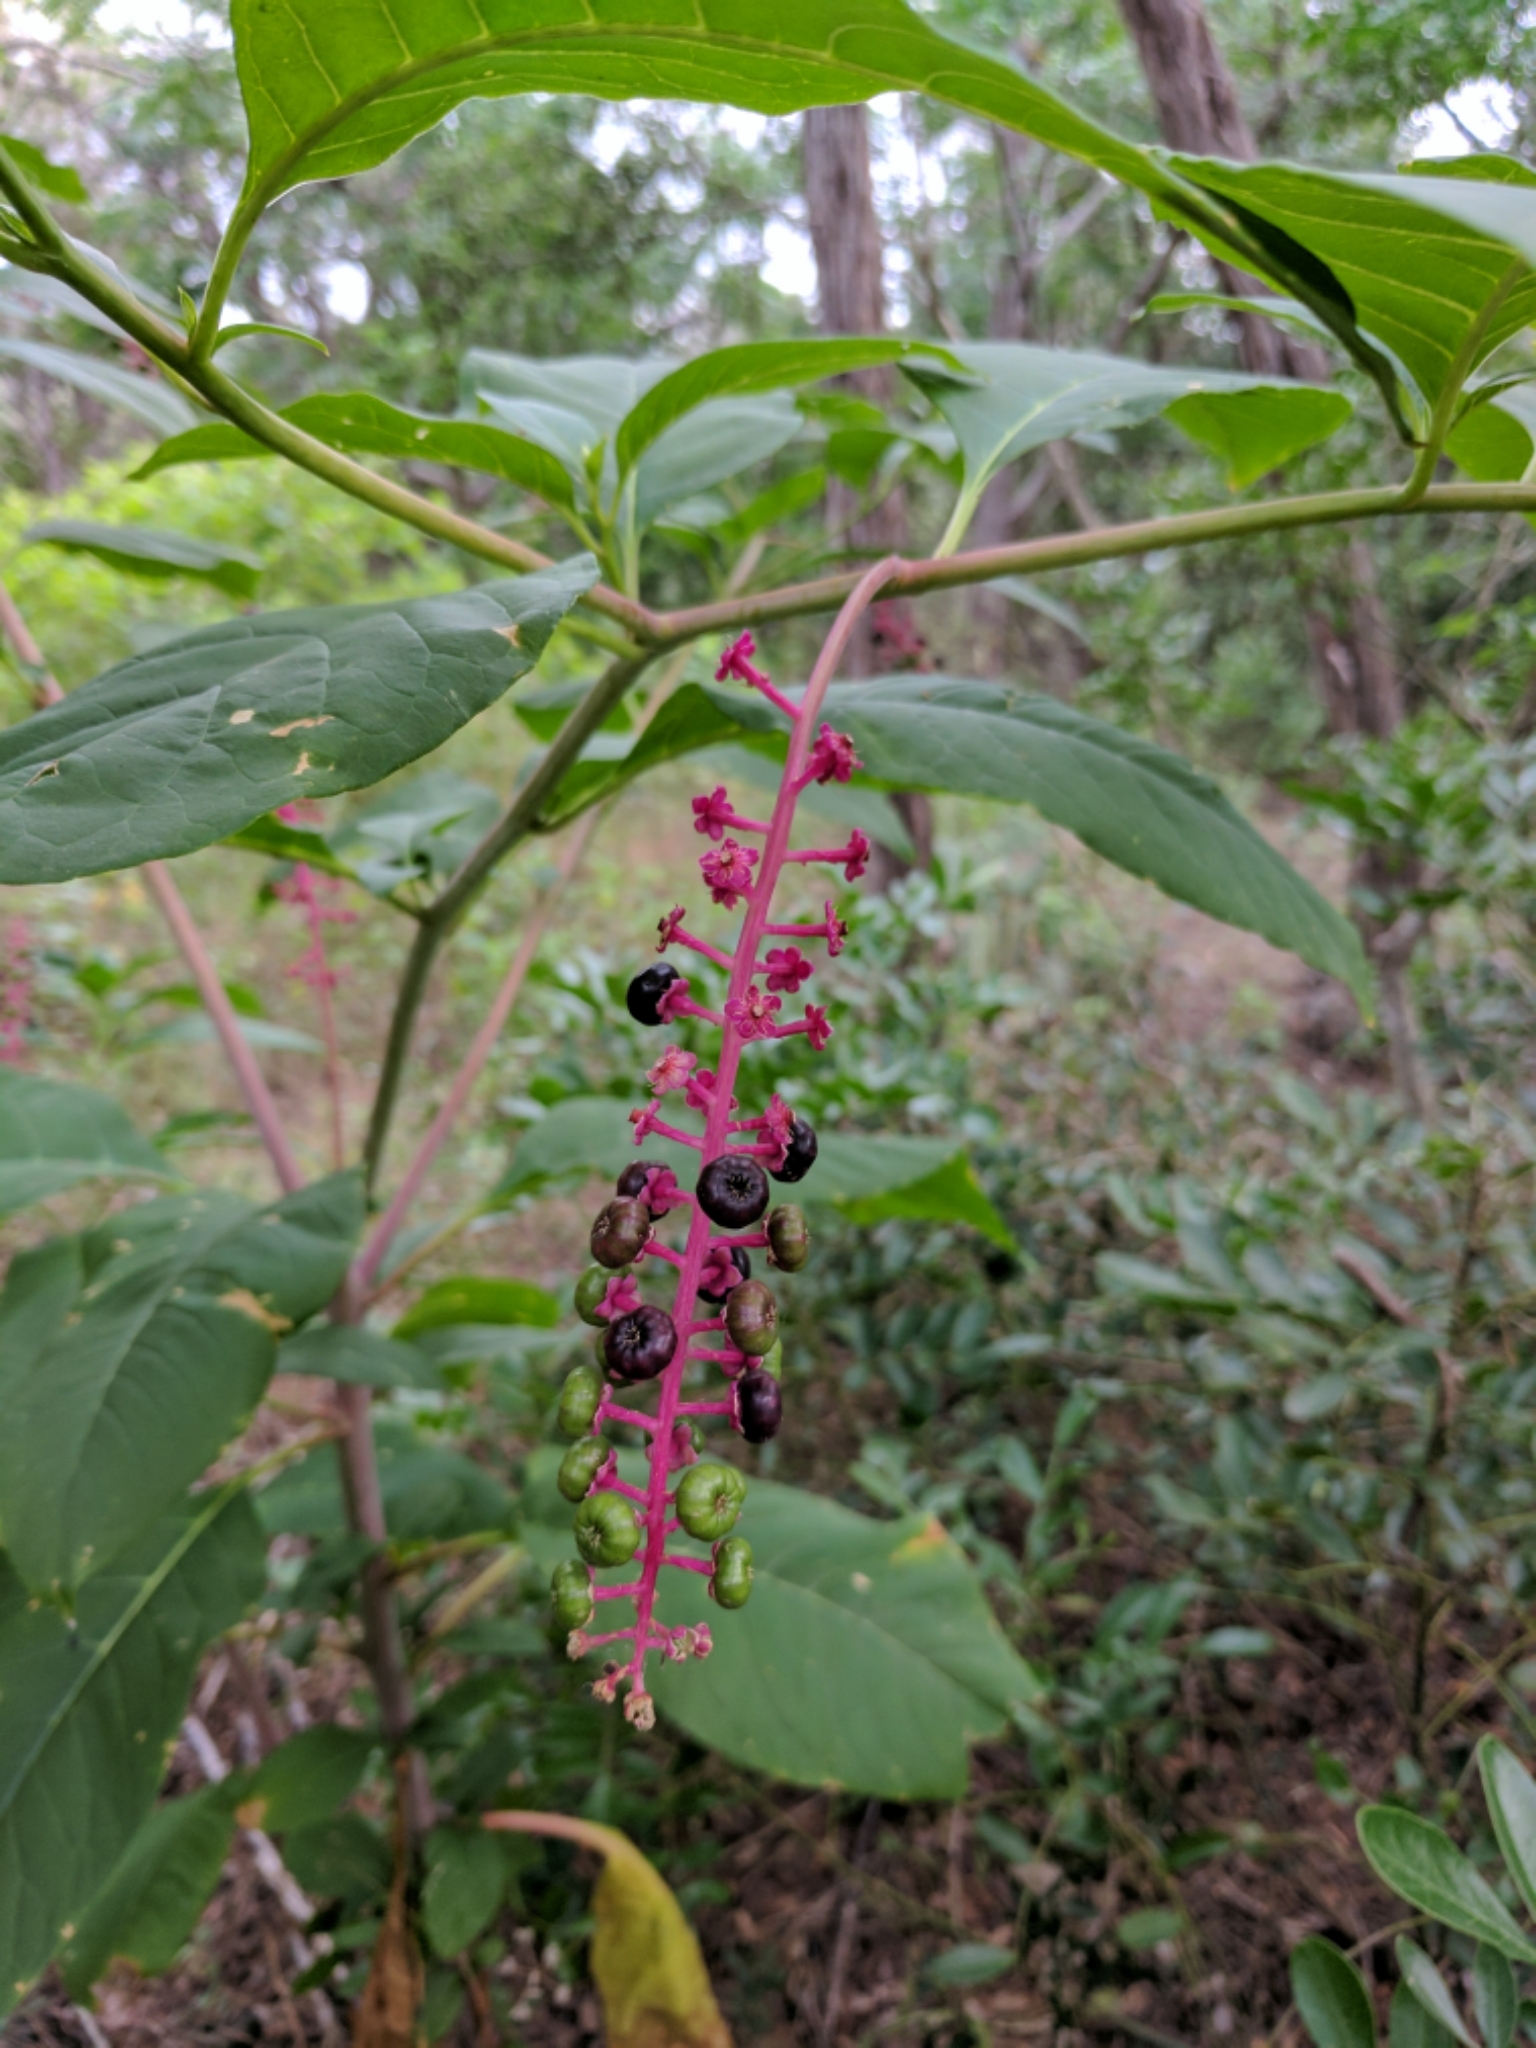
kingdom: Plantae
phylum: Tracheophyta
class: Magnoliopsida
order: Caryophyllales
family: Phytolaccaceae
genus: Phytolacca
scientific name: Phytolacca americana
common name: American pokeweed
